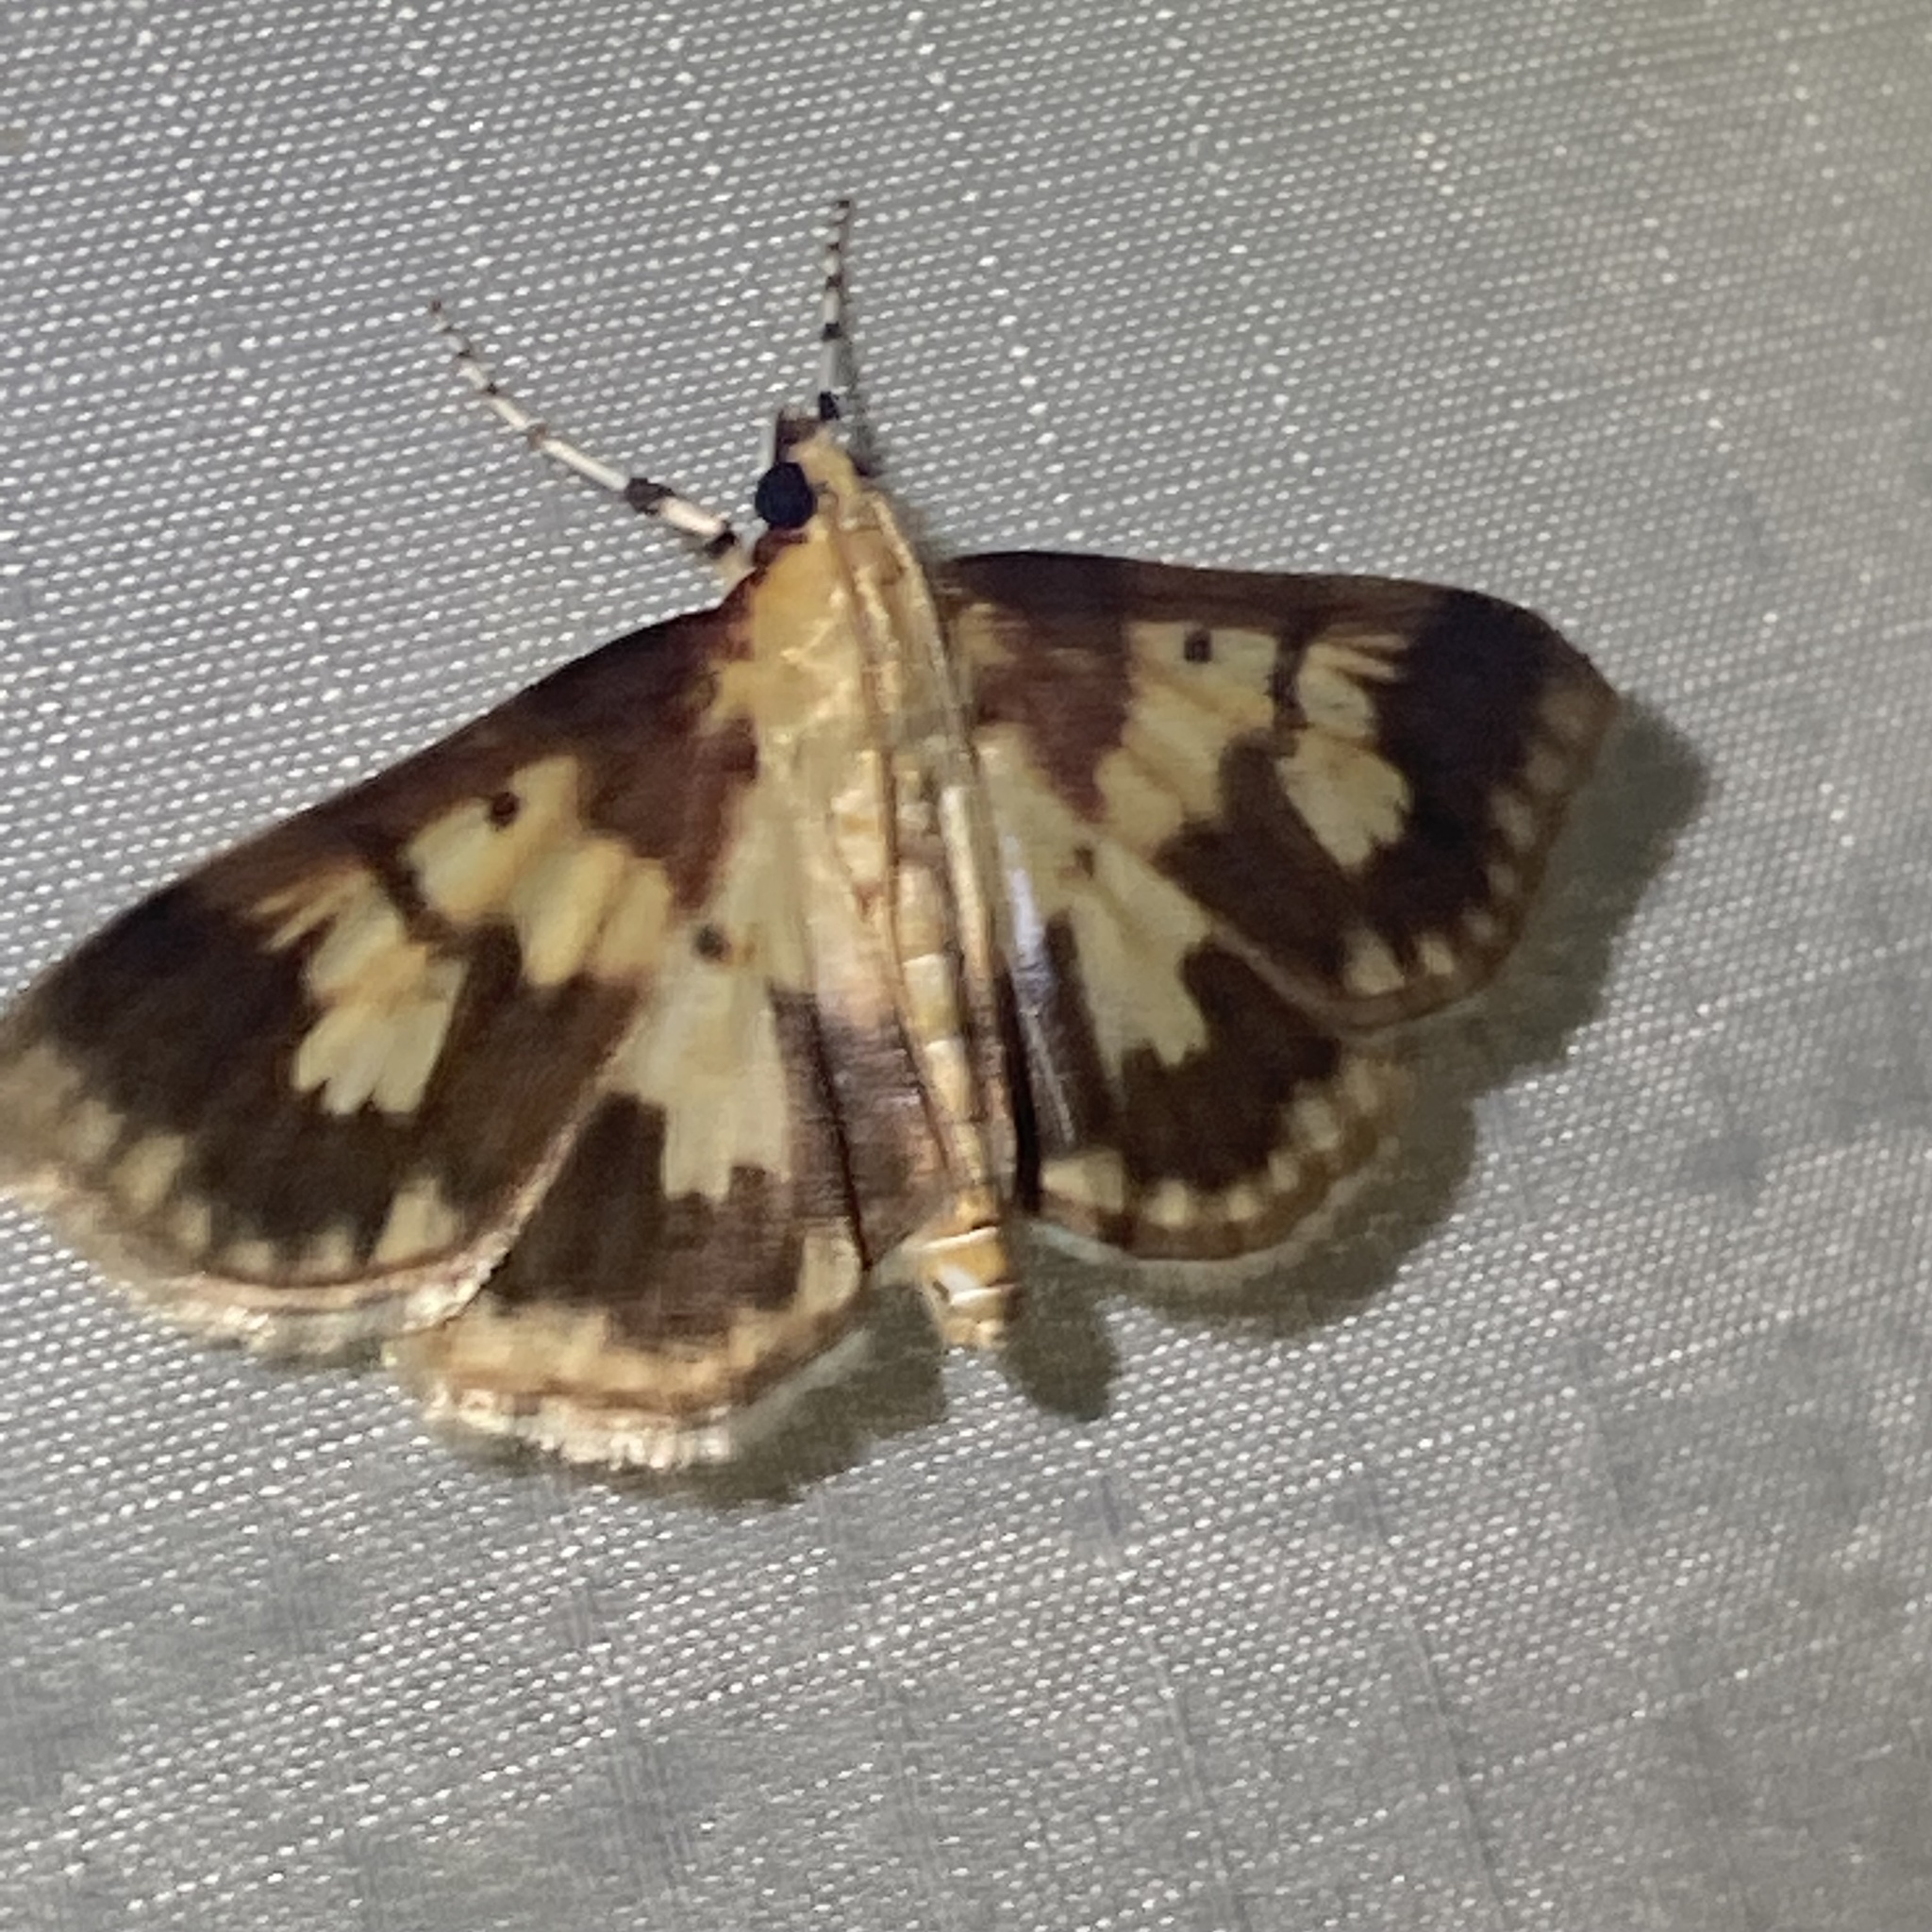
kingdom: Animalia
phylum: Arthropoda
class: Insecta
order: Lepidoptera
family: Crambidae
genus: Polygrammodes
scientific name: Polygrammodes langdonalis
